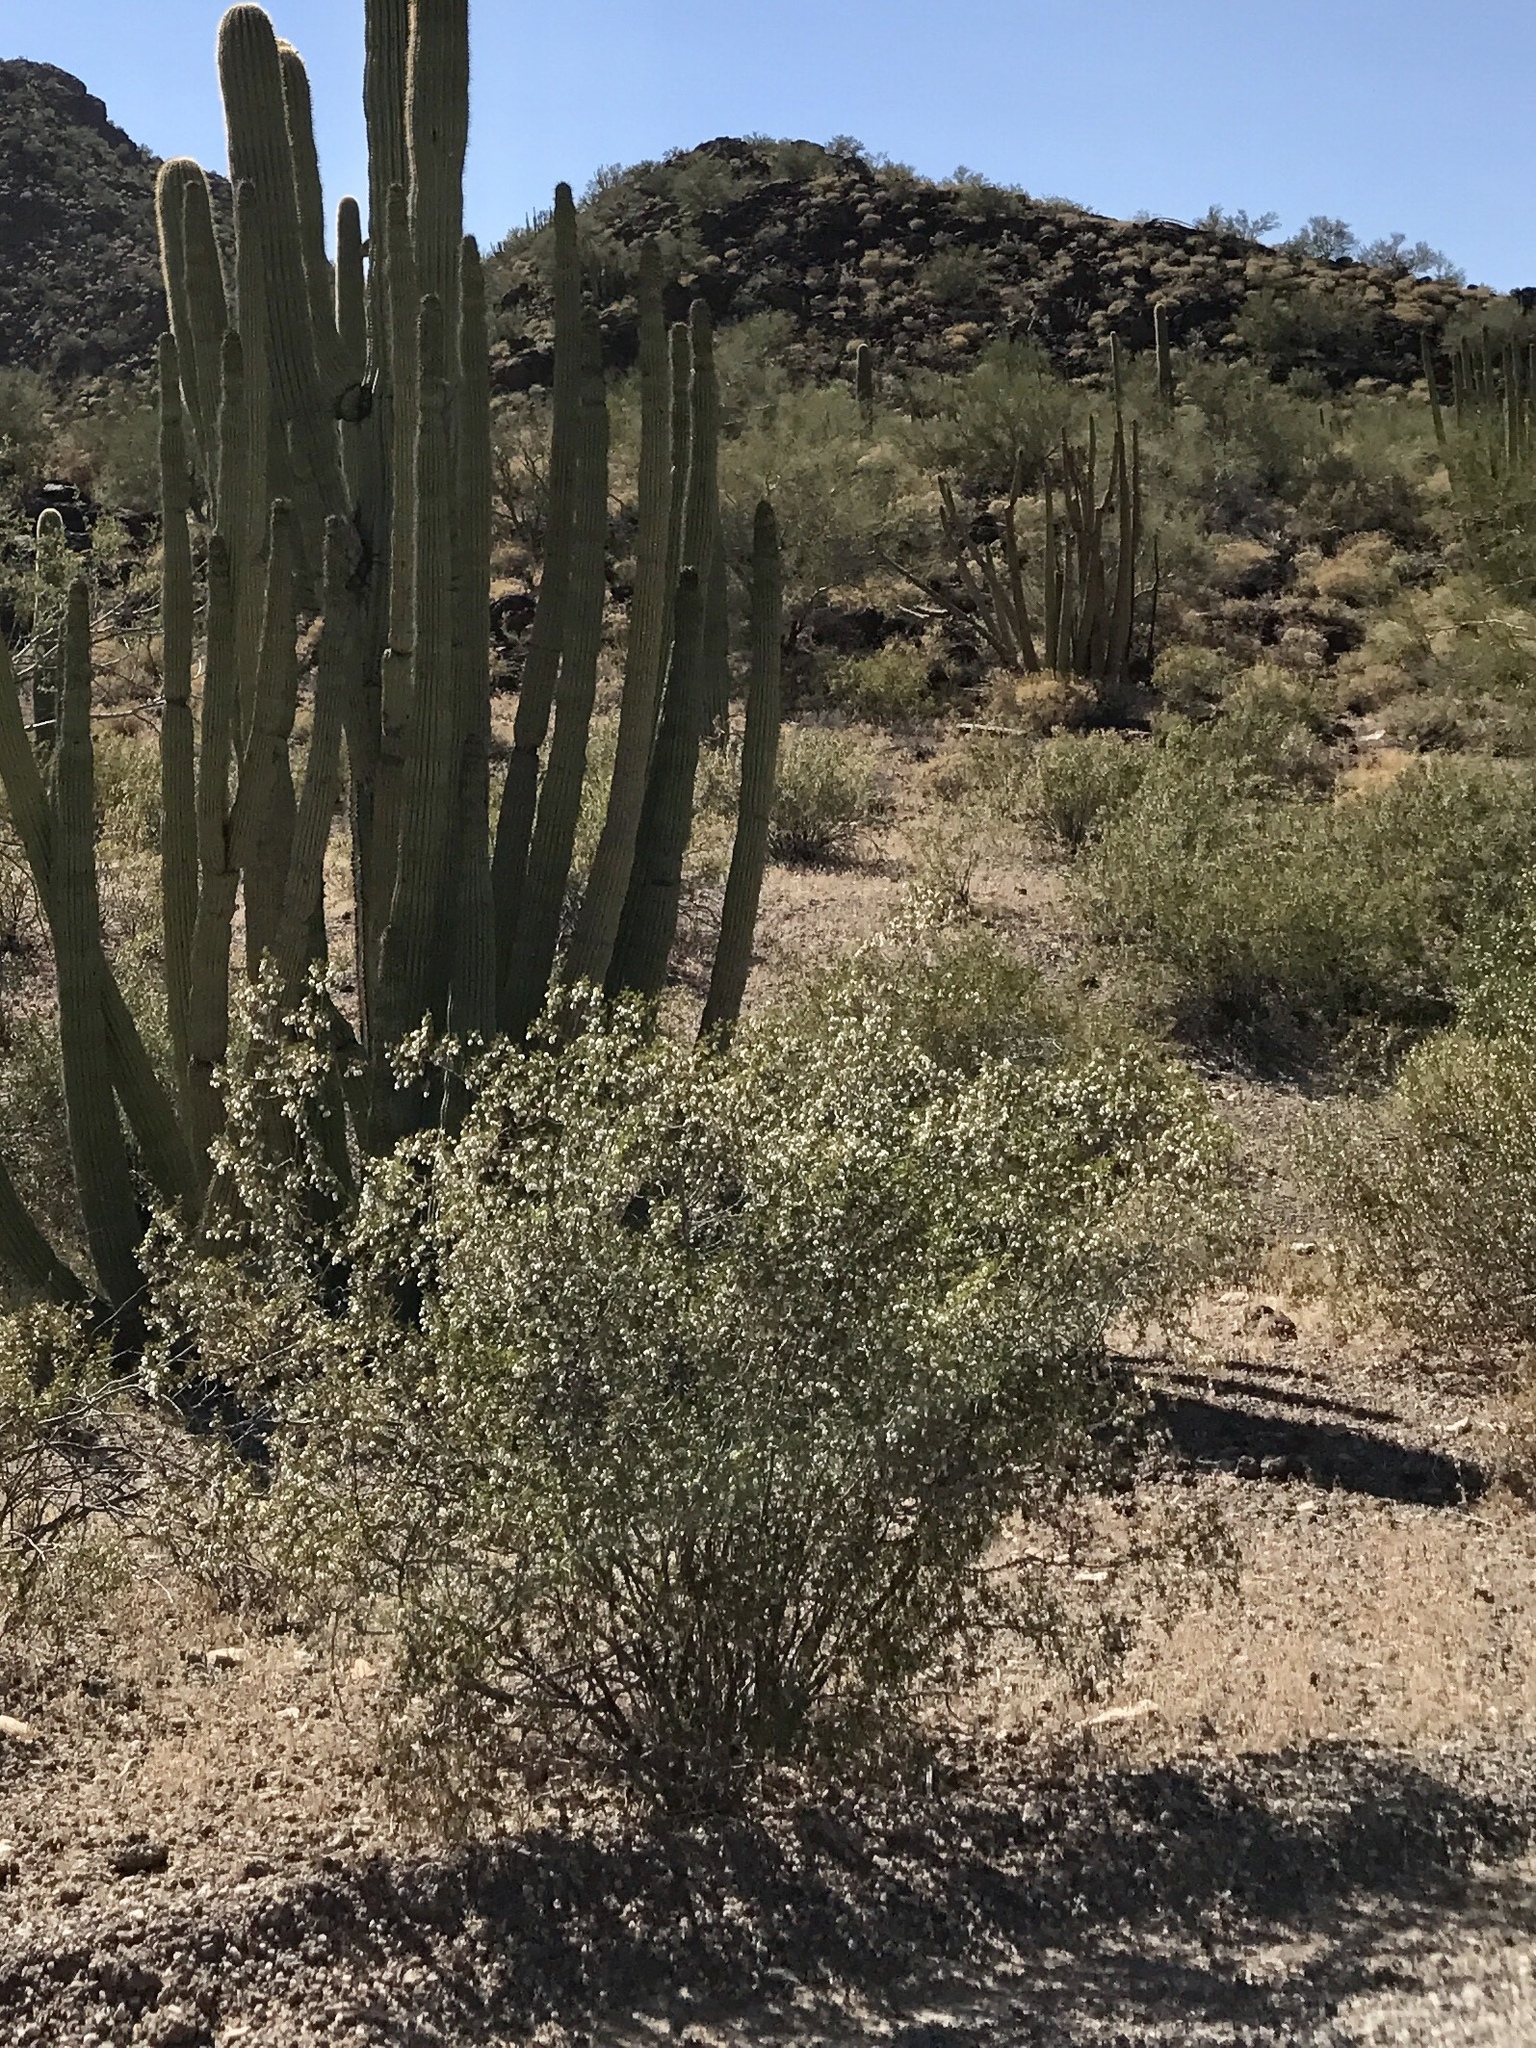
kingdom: Plantae
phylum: Tracheophyta
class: Magnoliopsida
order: Zygophyllales
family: Zygophyllaceae
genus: Larrea
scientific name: Larrea tridentata
